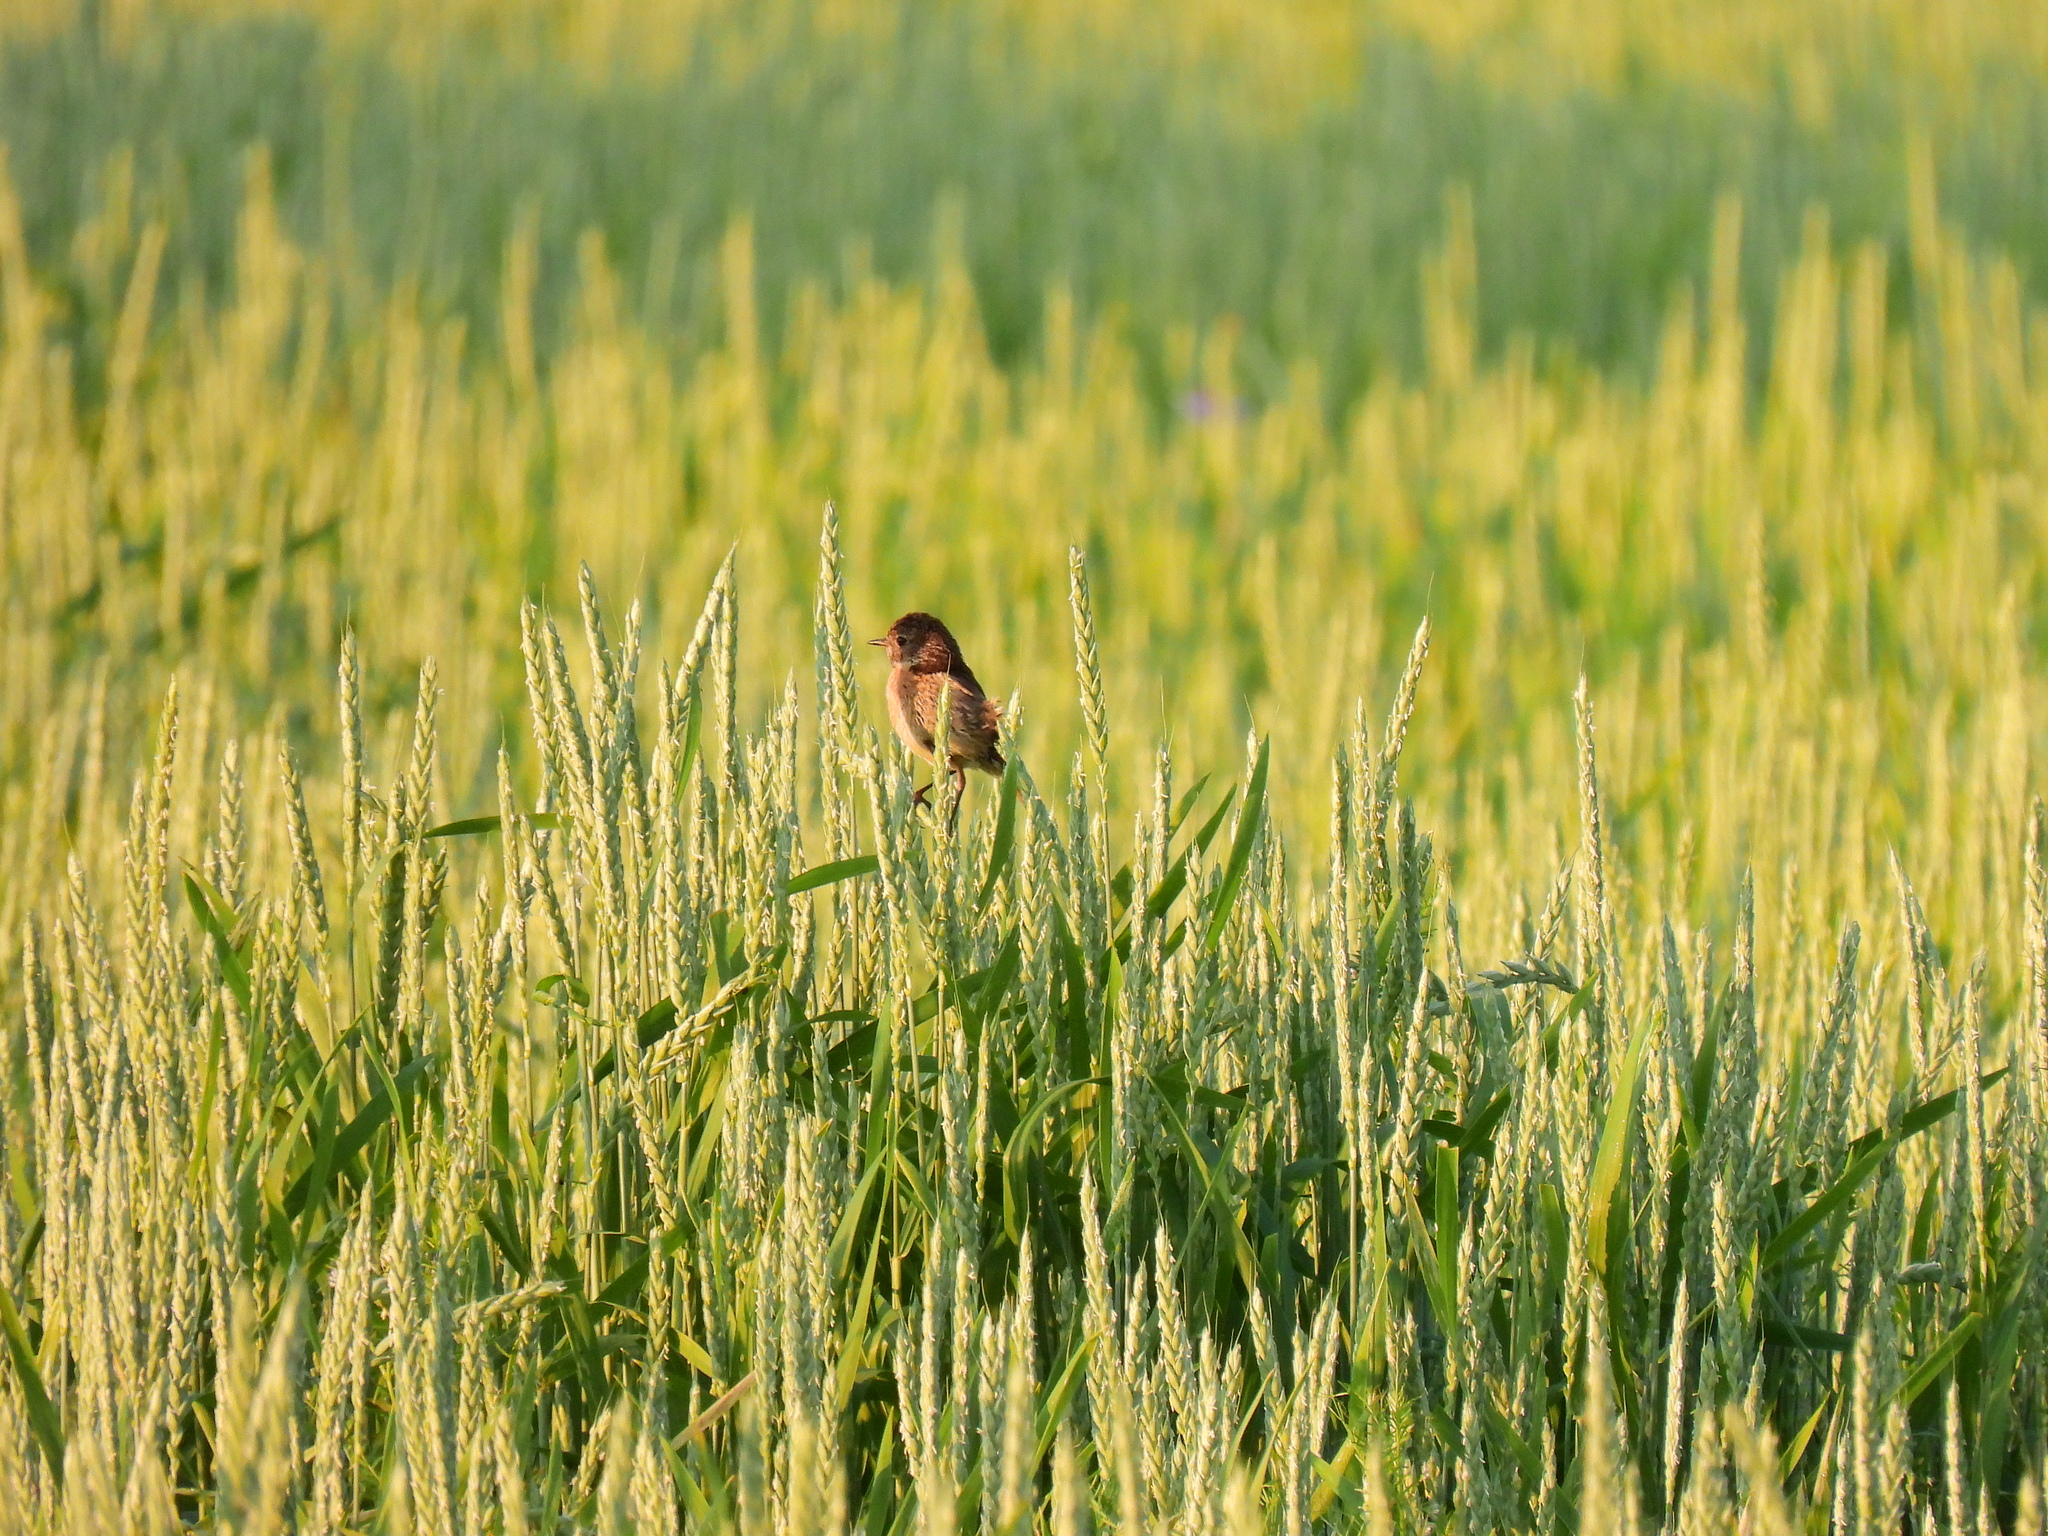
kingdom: Animalia
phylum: Chordata
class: Aves
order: Passeriformes
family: Muscicapidae
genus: Saxicola
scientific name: Saxicola rubicola
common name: European stonechat
